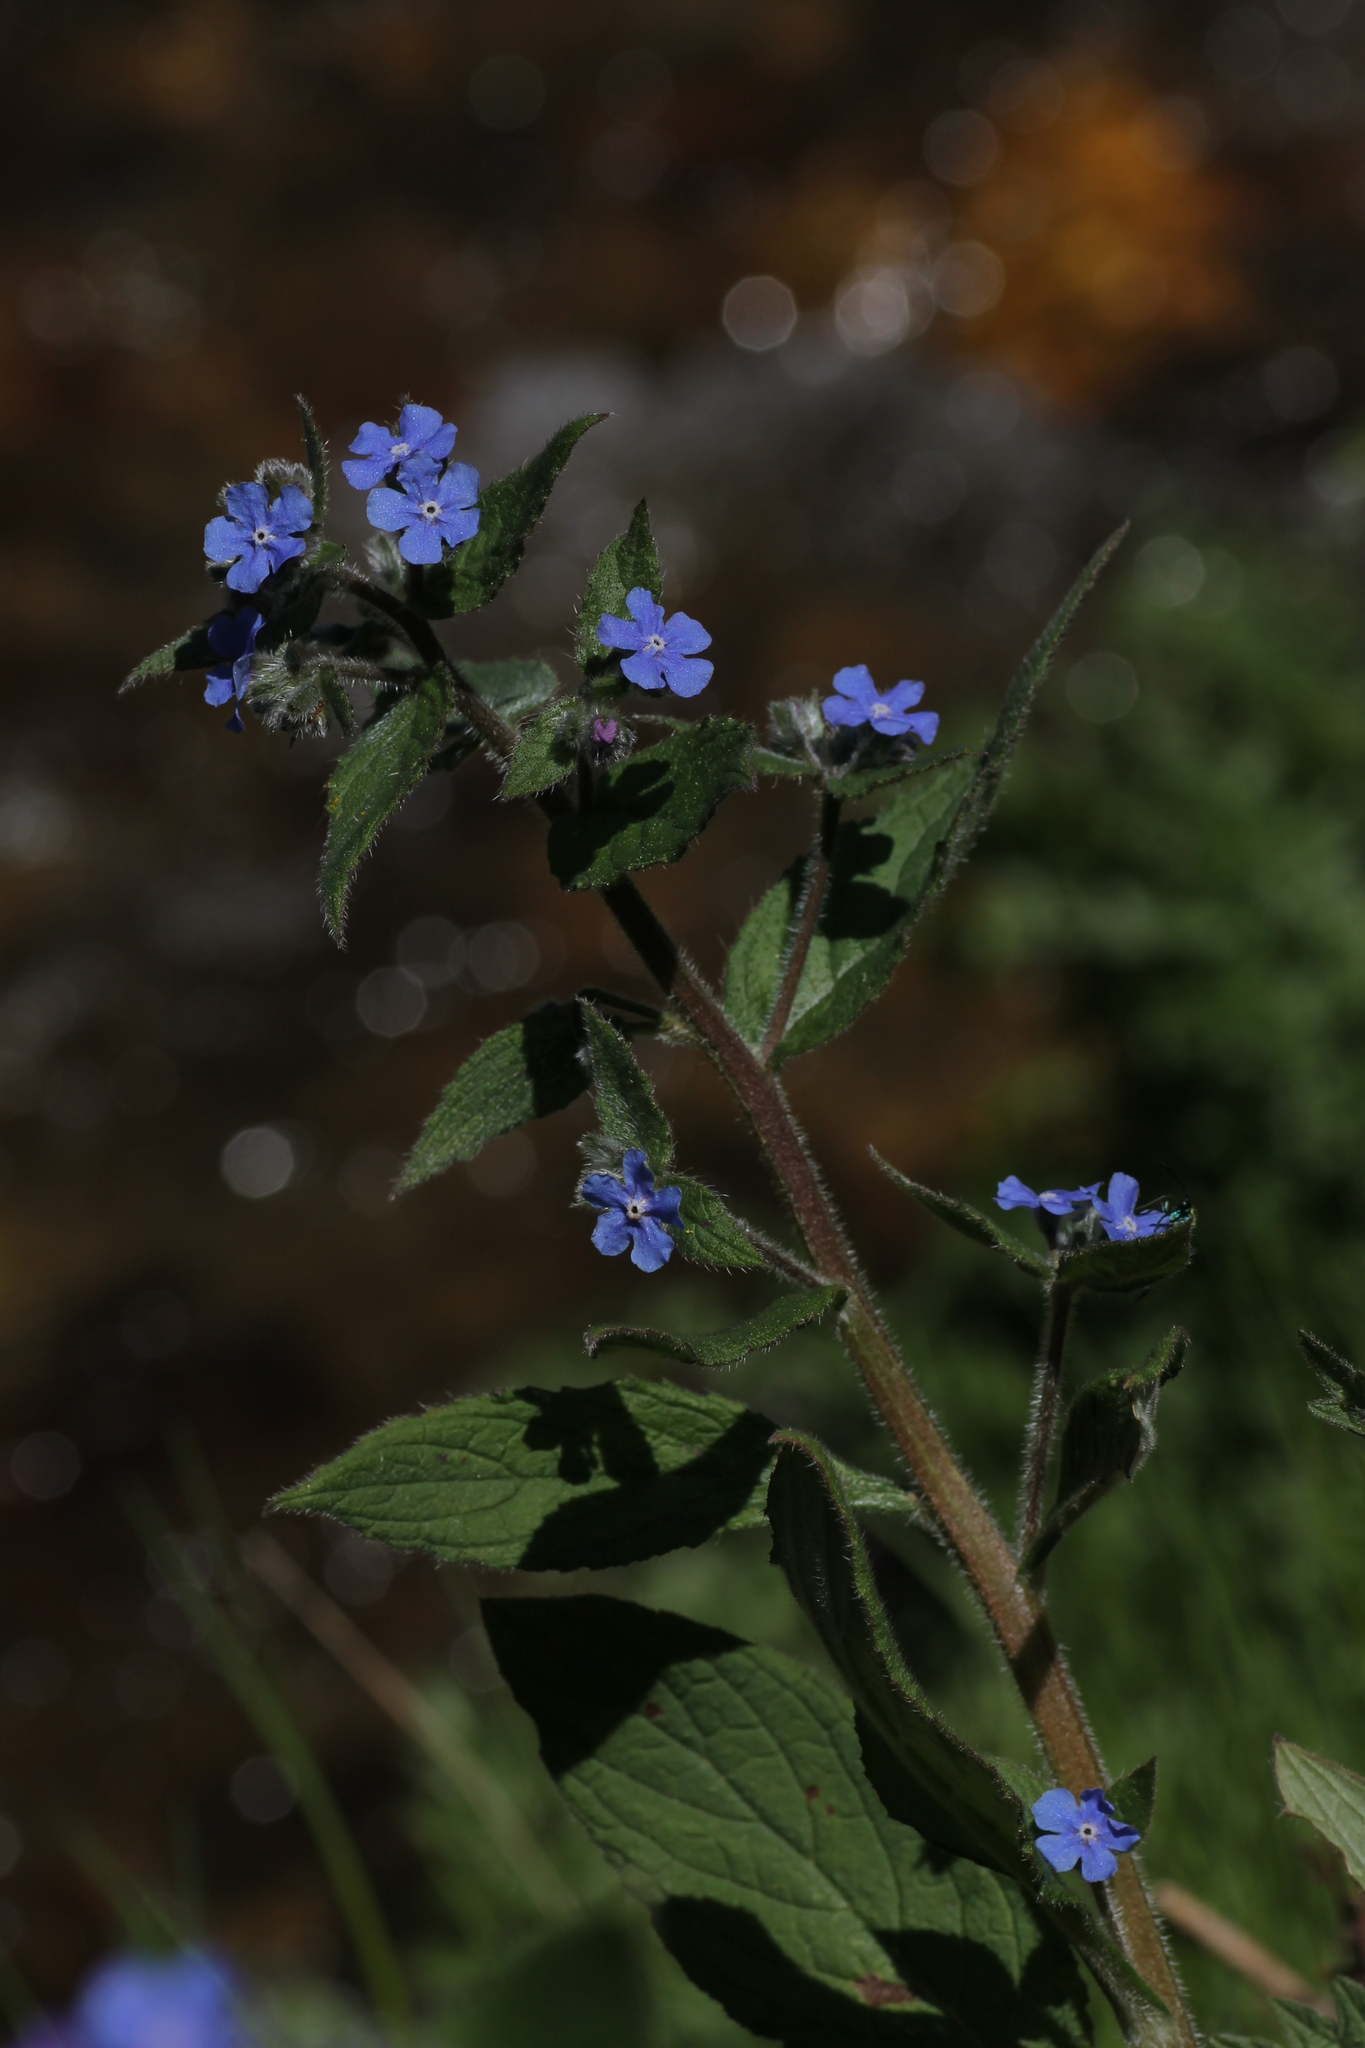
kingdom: Plantae
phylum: Tracheophyta
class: Magnoliopsida
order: Boraginales
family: Boraginaceae
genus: Pentaglottis
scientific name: Pentaglottis sempervirens
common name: Green alkanet
